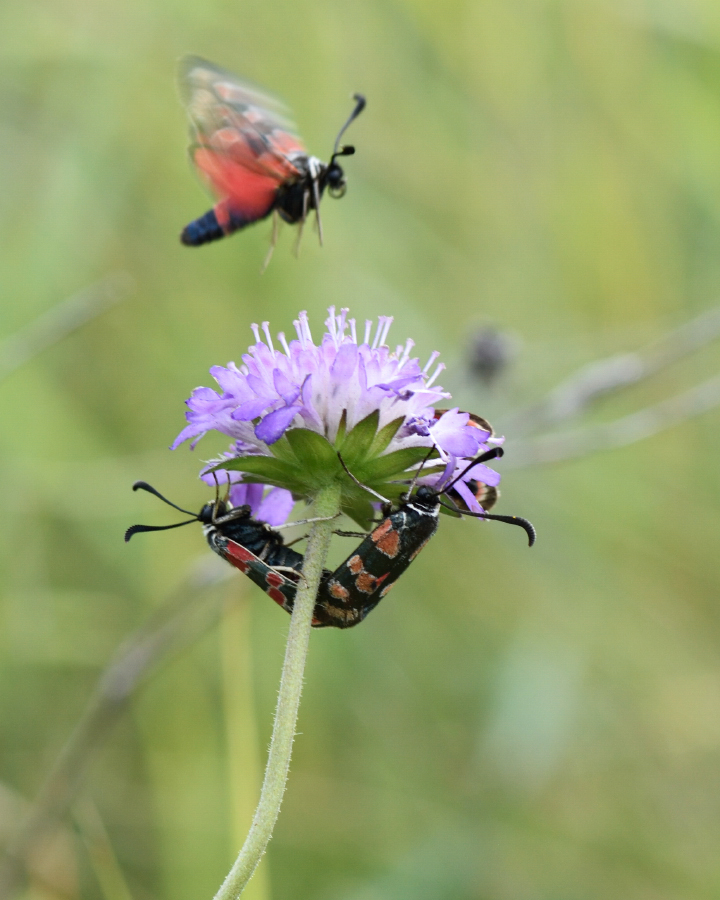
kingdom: Animalia
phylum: Arthropoda
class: Insecta
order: Lepidoptera
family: Zygaenidae
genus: Zygaena
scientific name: Zygaena carniolica
